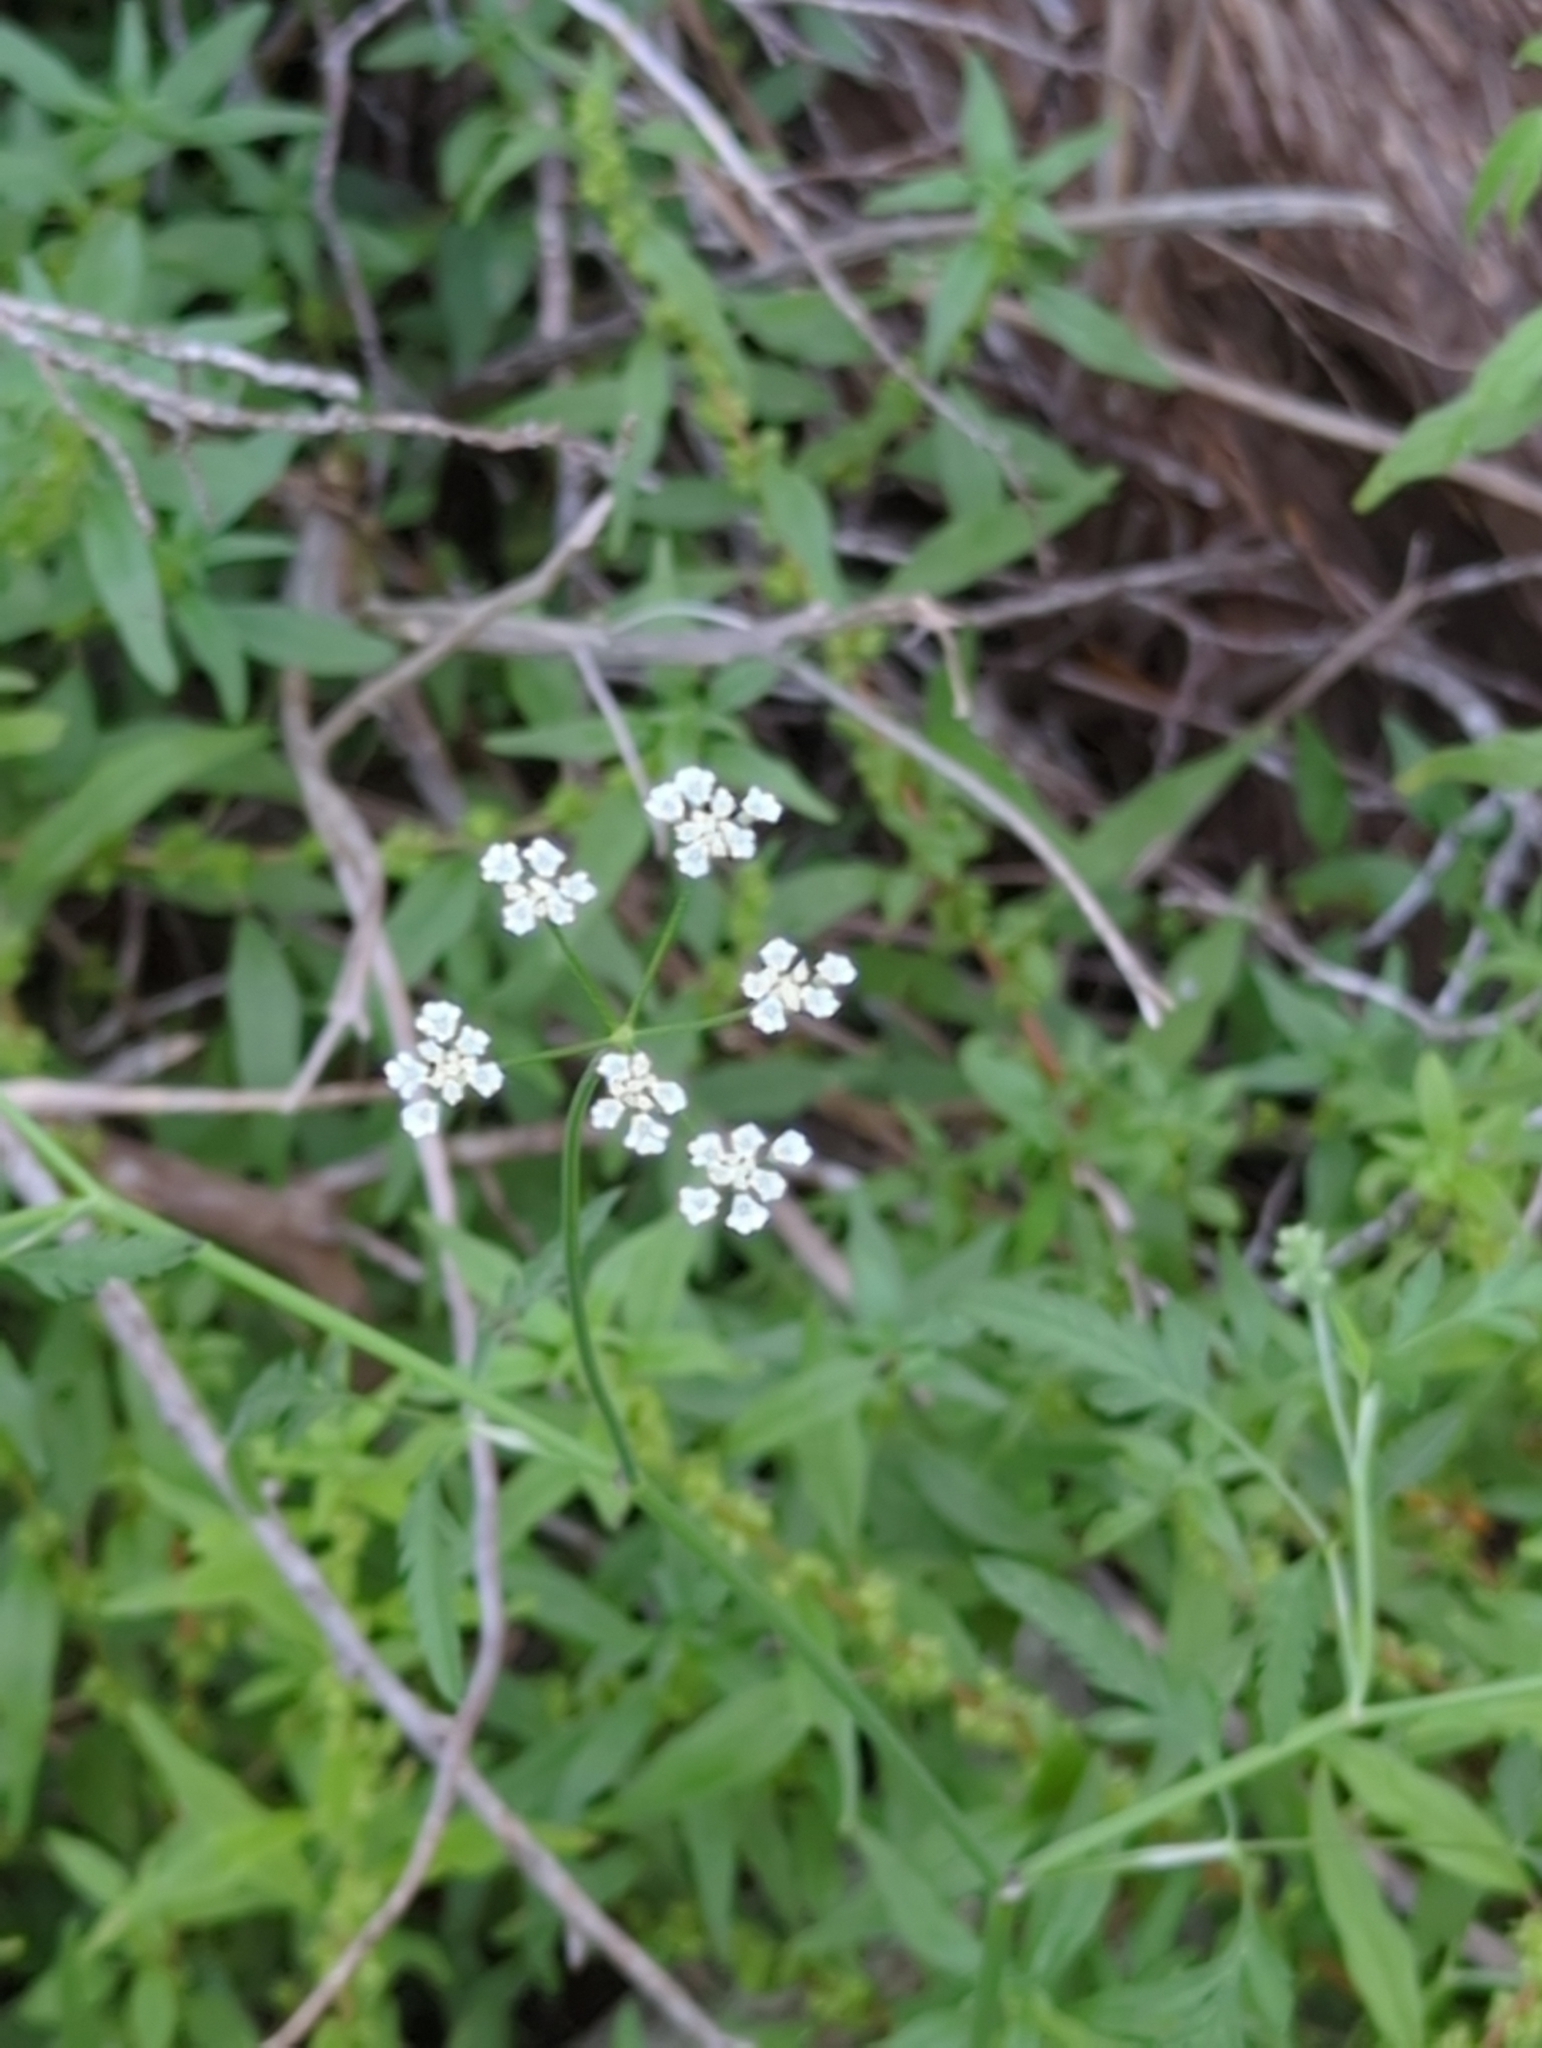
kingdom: Plantae
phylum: Tracheophyta
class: Magnoliopsida
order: Apiales
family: Apiaceae
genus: Torilis
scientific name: Torilis arvensis
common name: Spreading hedge-parsley
